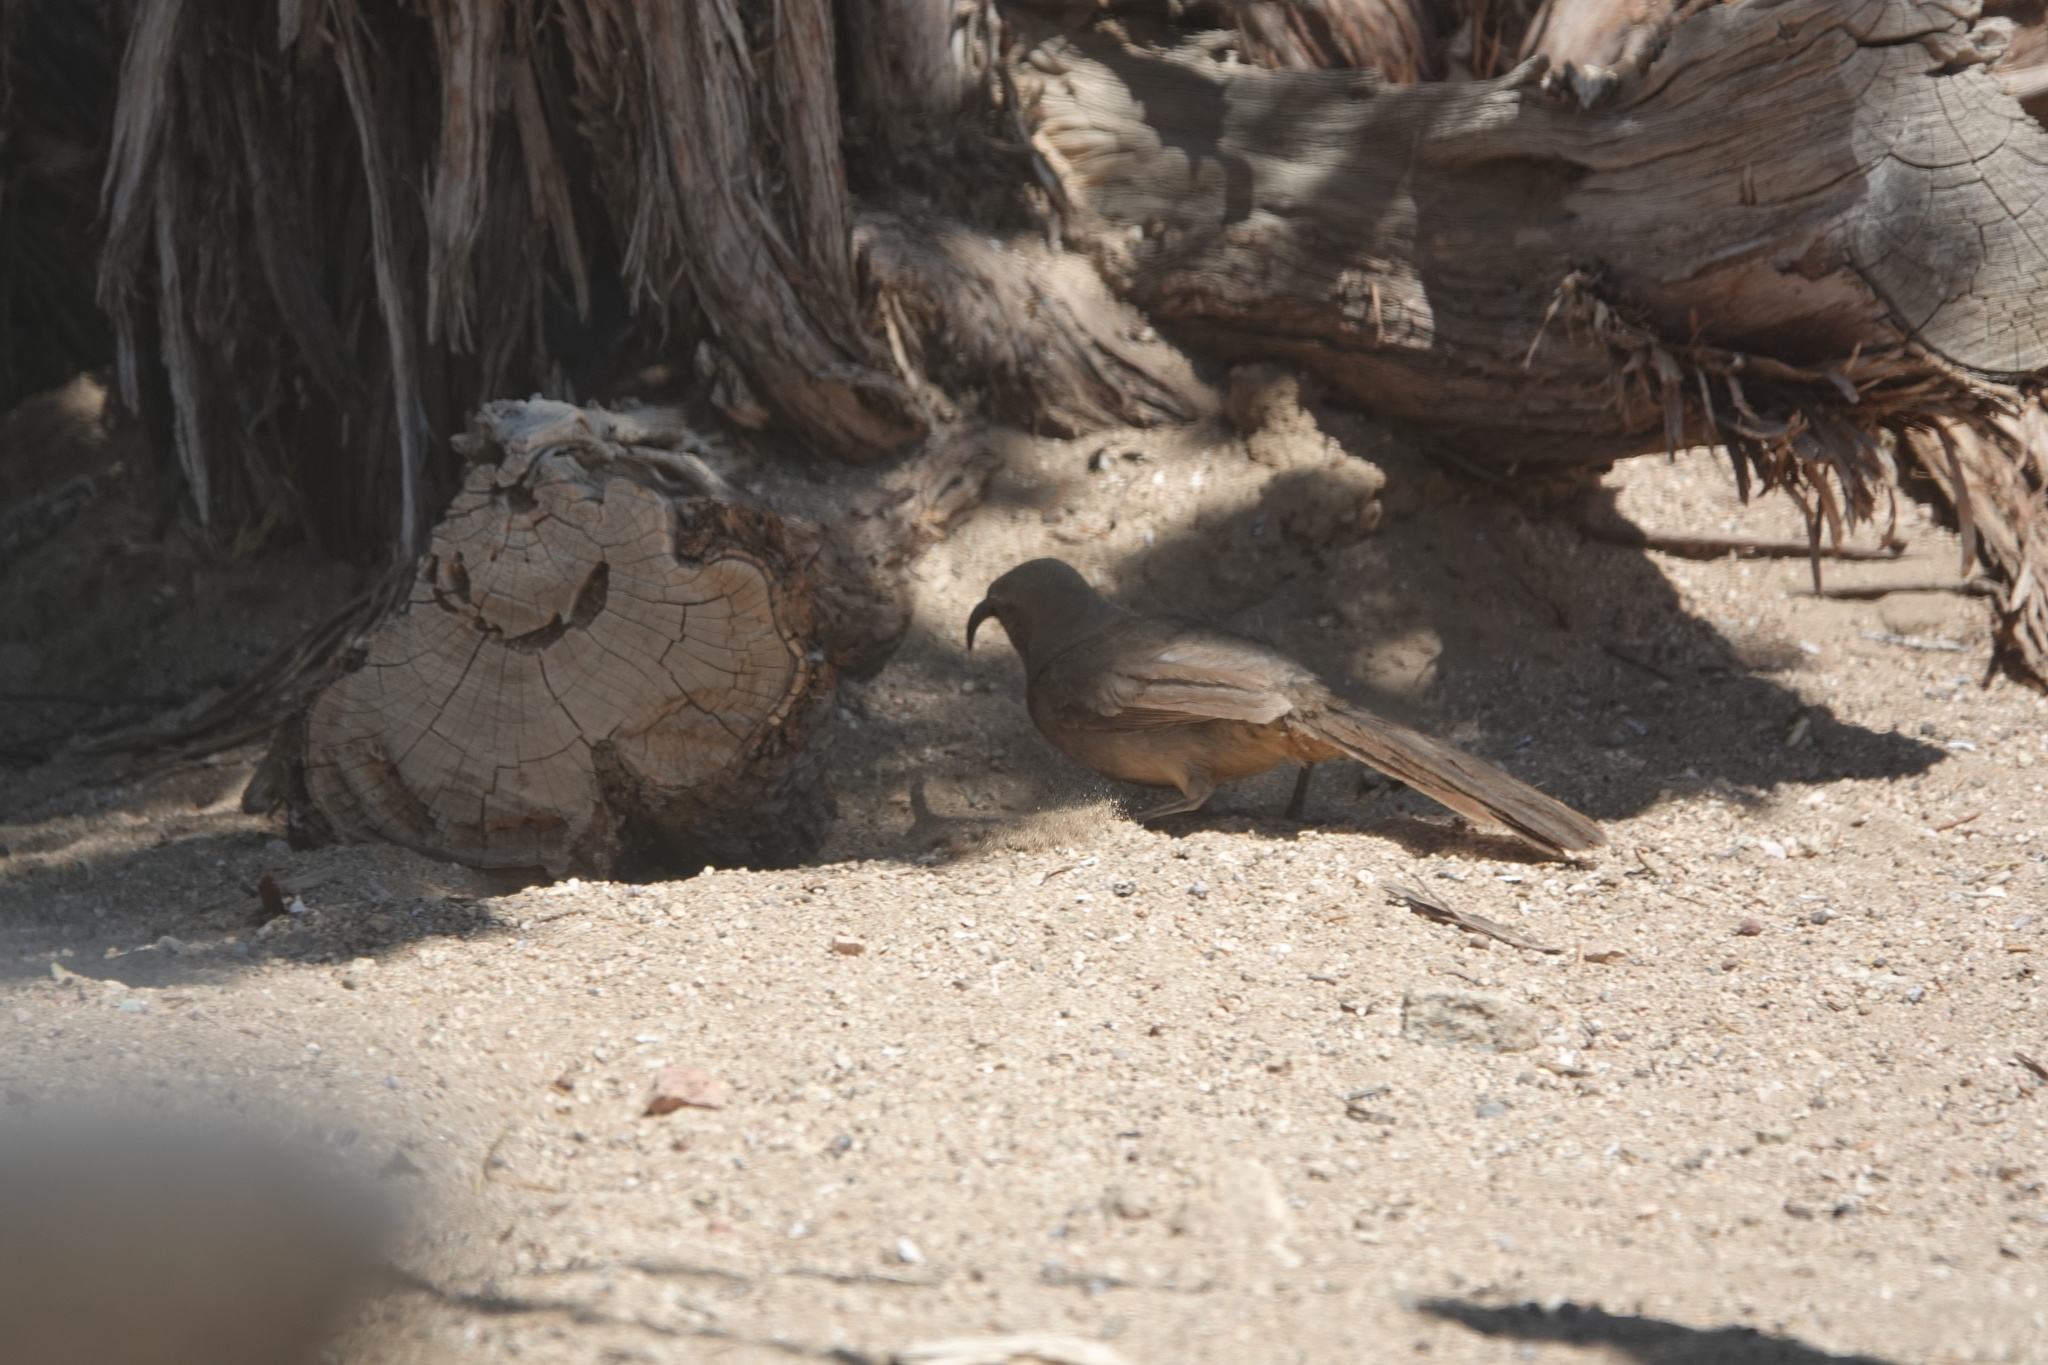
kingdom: Animalia
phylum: Chordata
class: Aves
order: Passeriformes
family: Mimidae
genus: Toxostoma
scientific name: Toxostoma redivivum
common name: California thrasher
